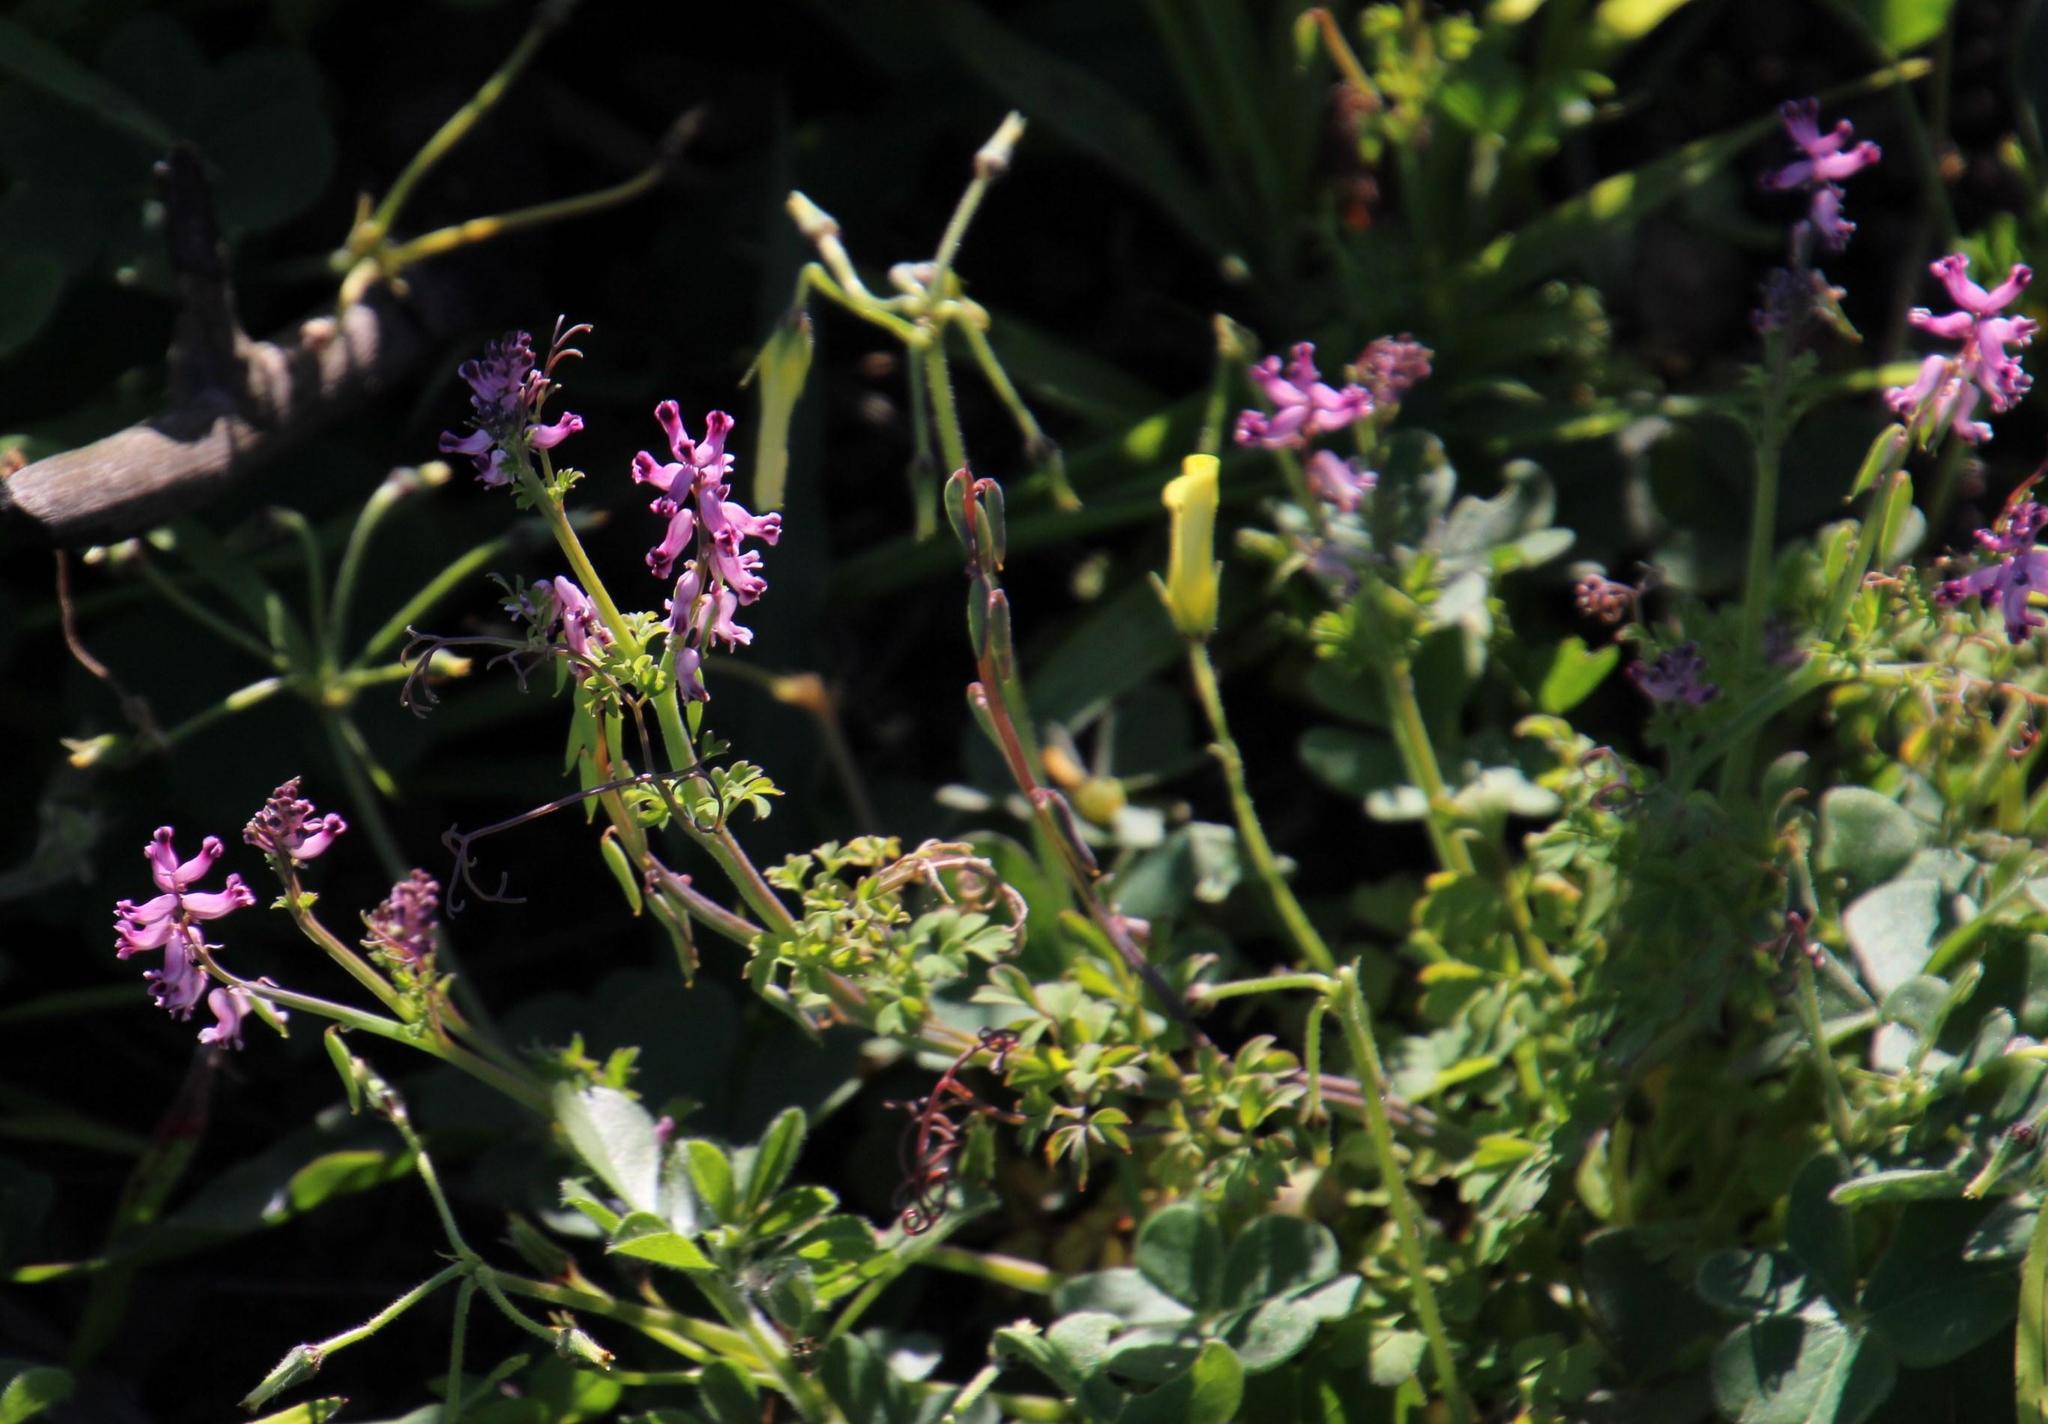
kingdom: Plantae
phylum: Tracheophyta
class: Magnoliopsida
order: Ranunculales
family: Papaveraceae
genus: Cysticapnos
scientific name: Cysticapnos cracca
